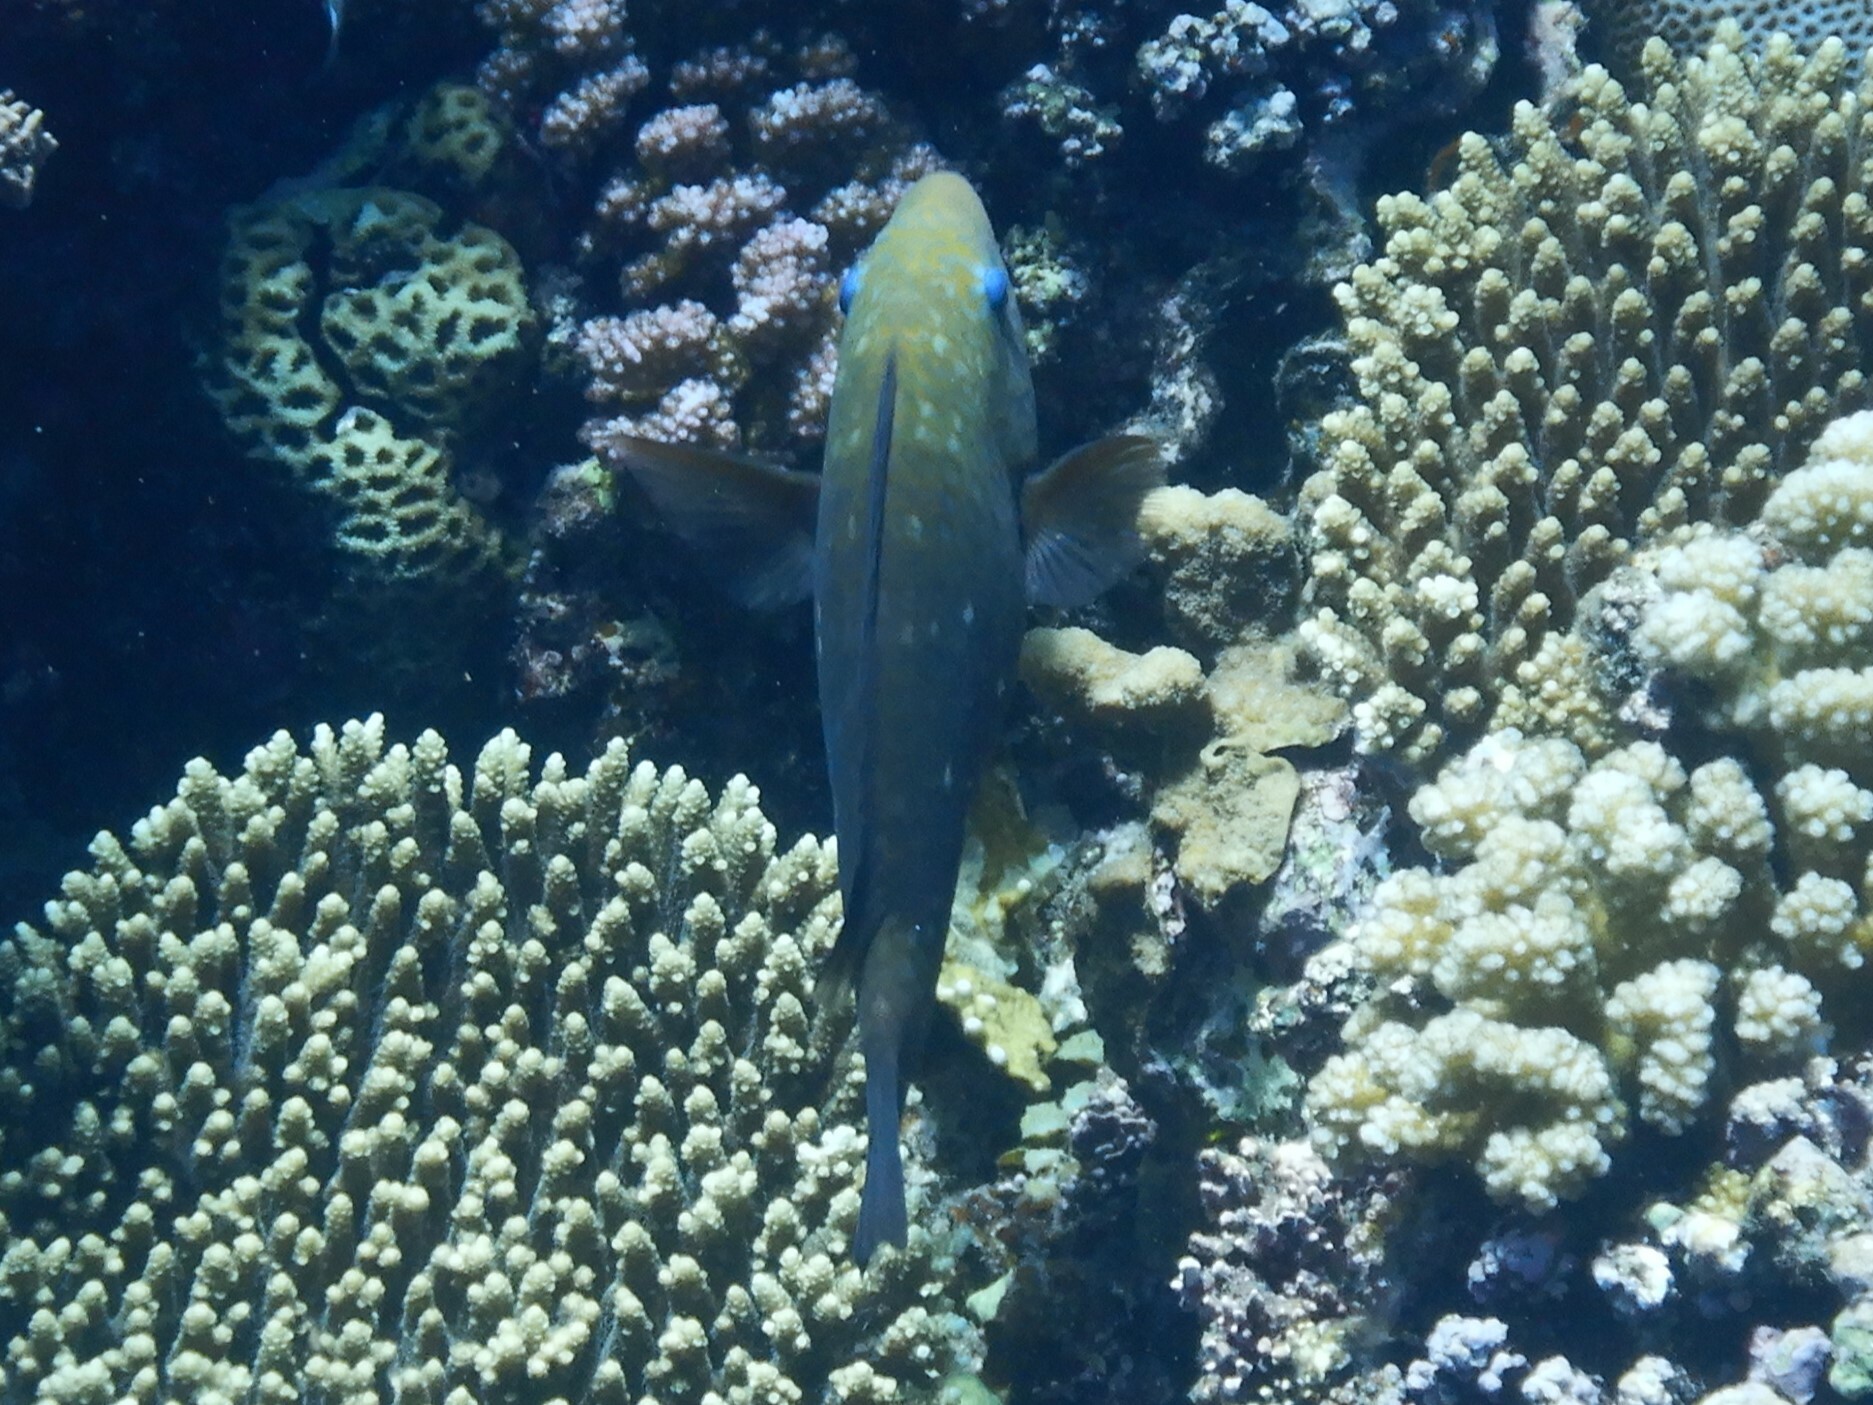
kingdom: Animalia
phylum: Chordata
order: Perciformes
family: Scaridae
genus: Chlorurus
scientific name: Chlorurus sordidus
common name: Bullethead parrotfish
